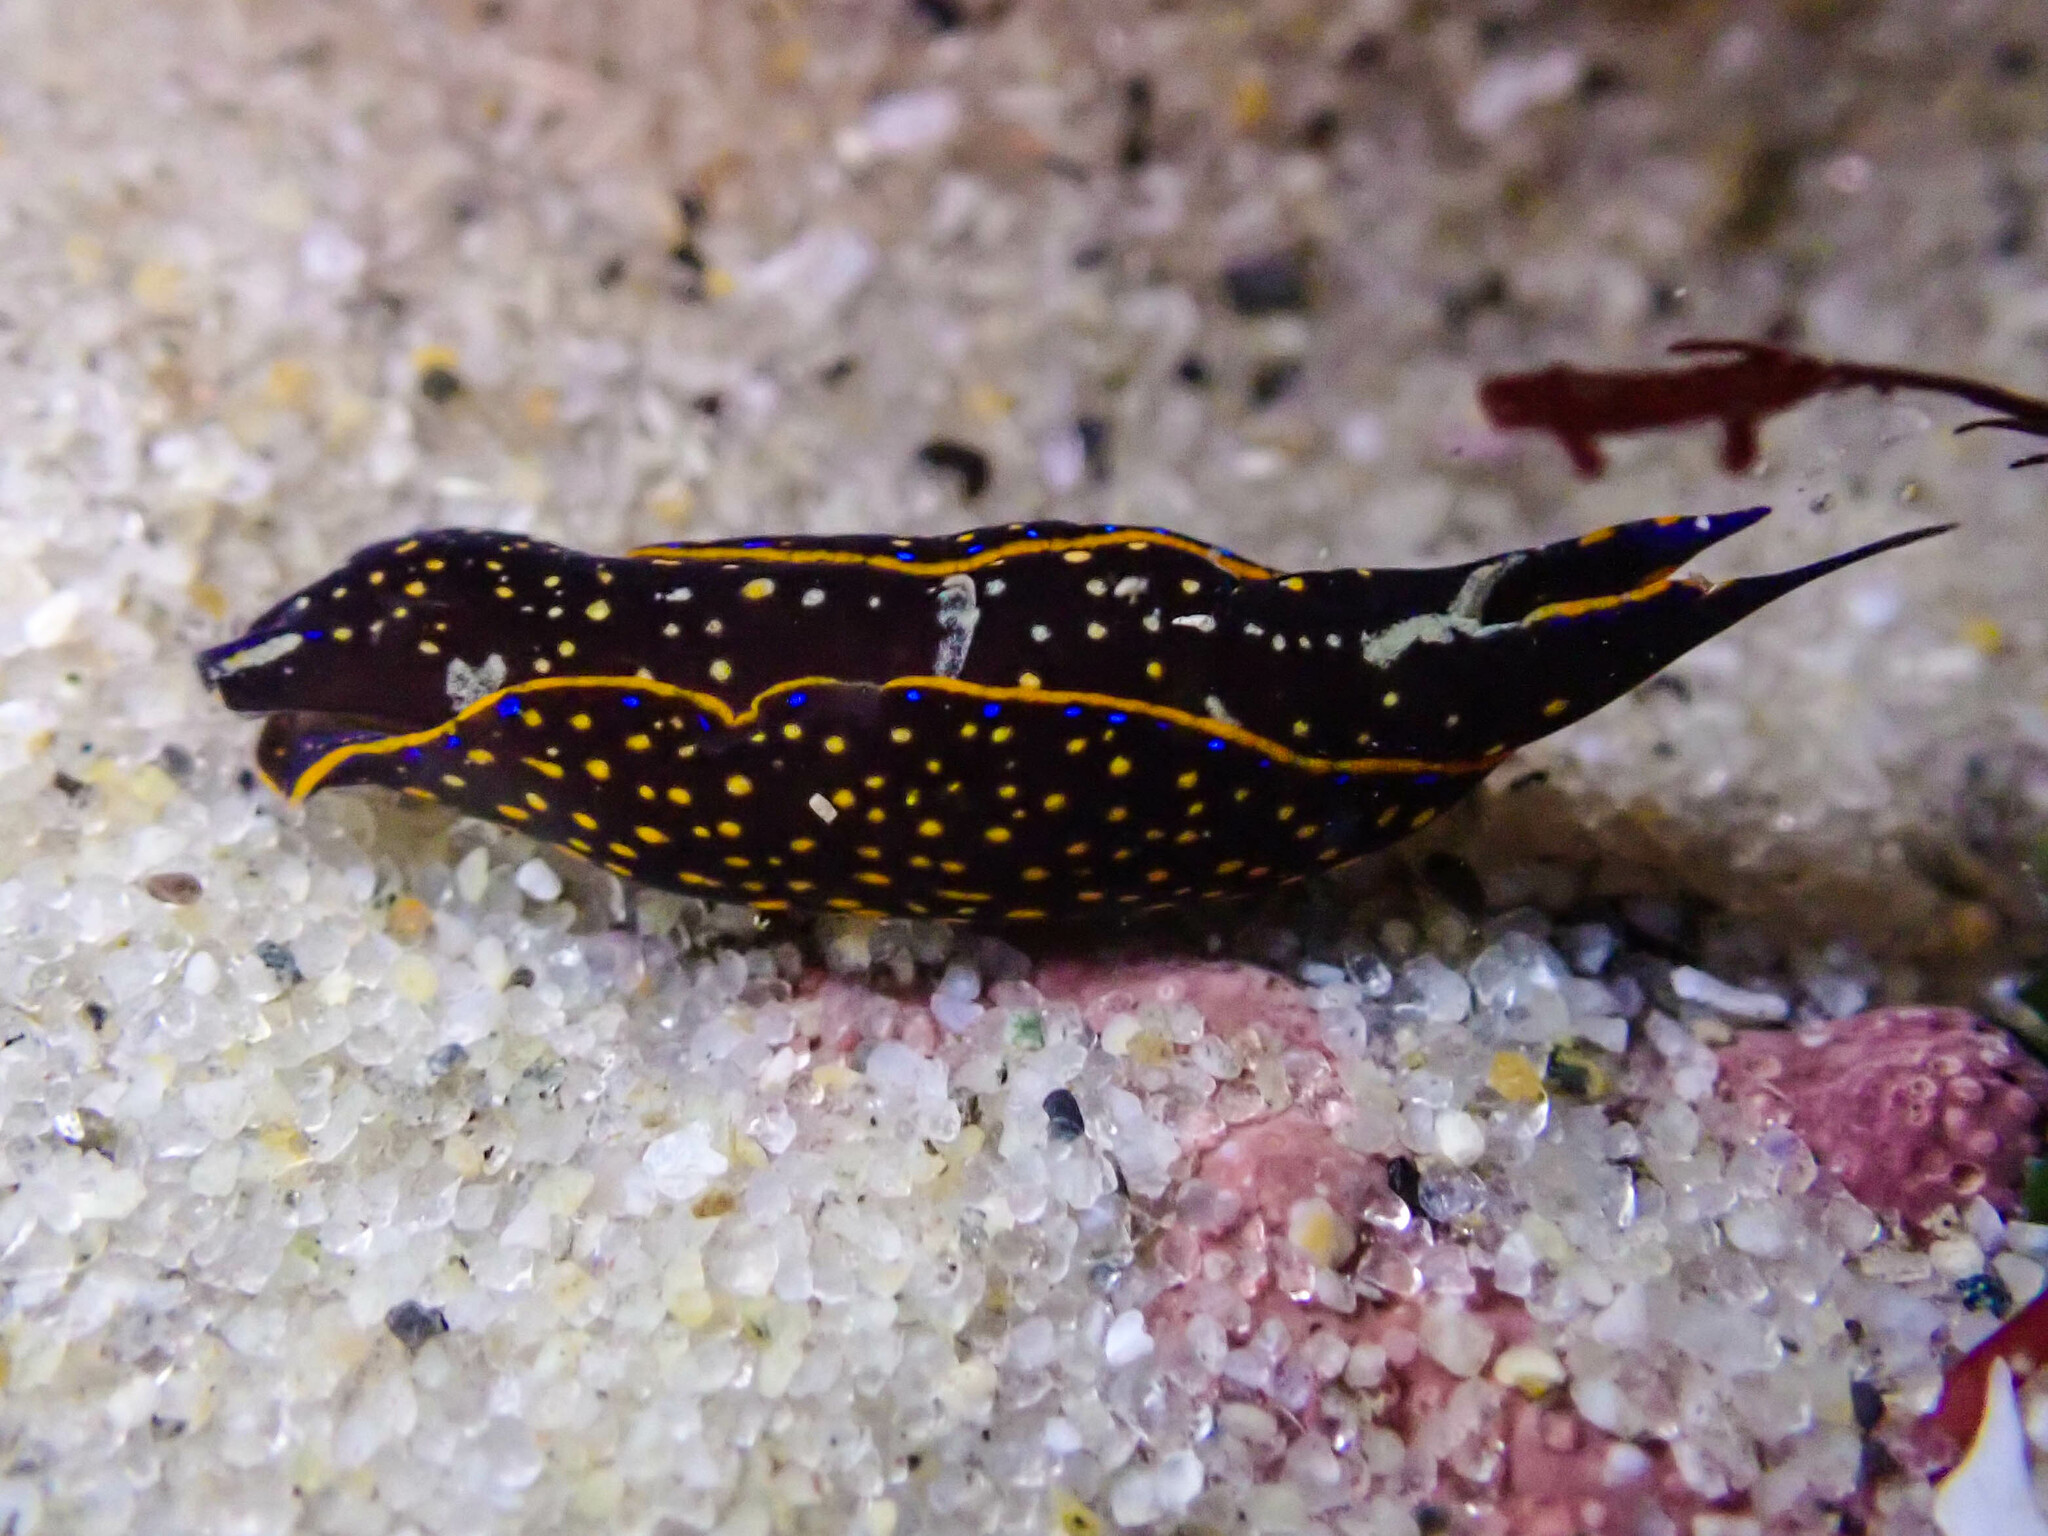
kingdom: Animalia
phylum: Mollusca
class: Gastropoda
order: Cephalaspidea
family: Aglajidae
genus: Navanax
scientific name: Navanax inermis
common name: California aglaja
